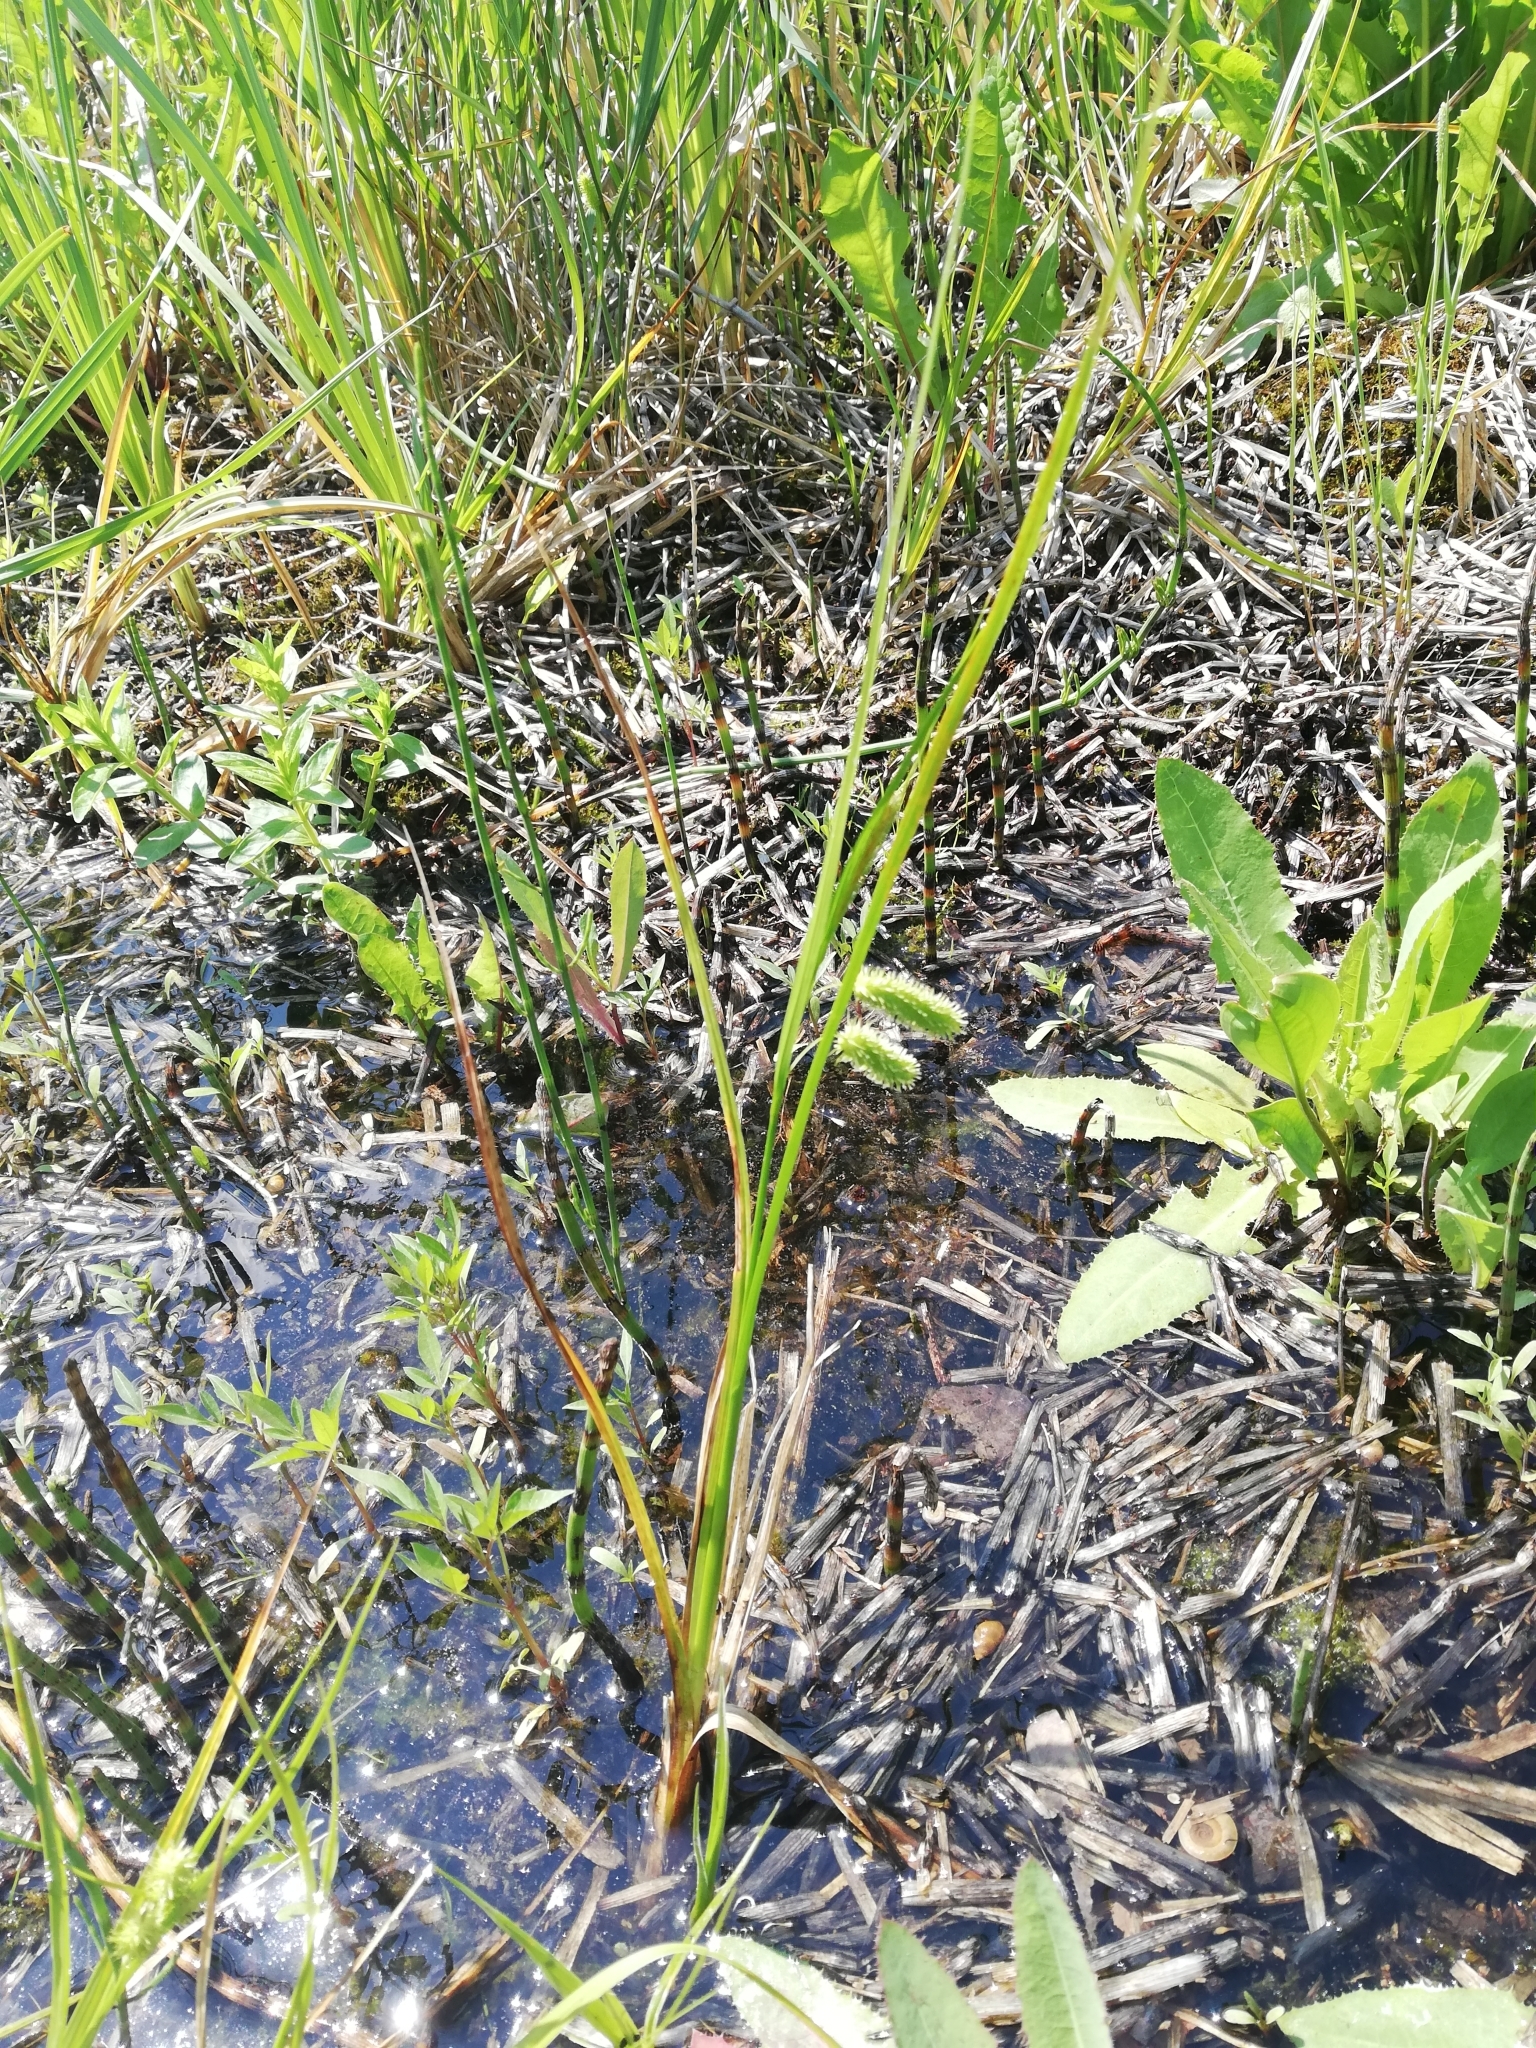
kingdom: Plantae
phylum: Tracheophyta
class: Liliopsida
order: Poales
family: Cyperaceae
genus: Carex
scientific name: Carex pseudocyperus
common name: Cyperus sedge
